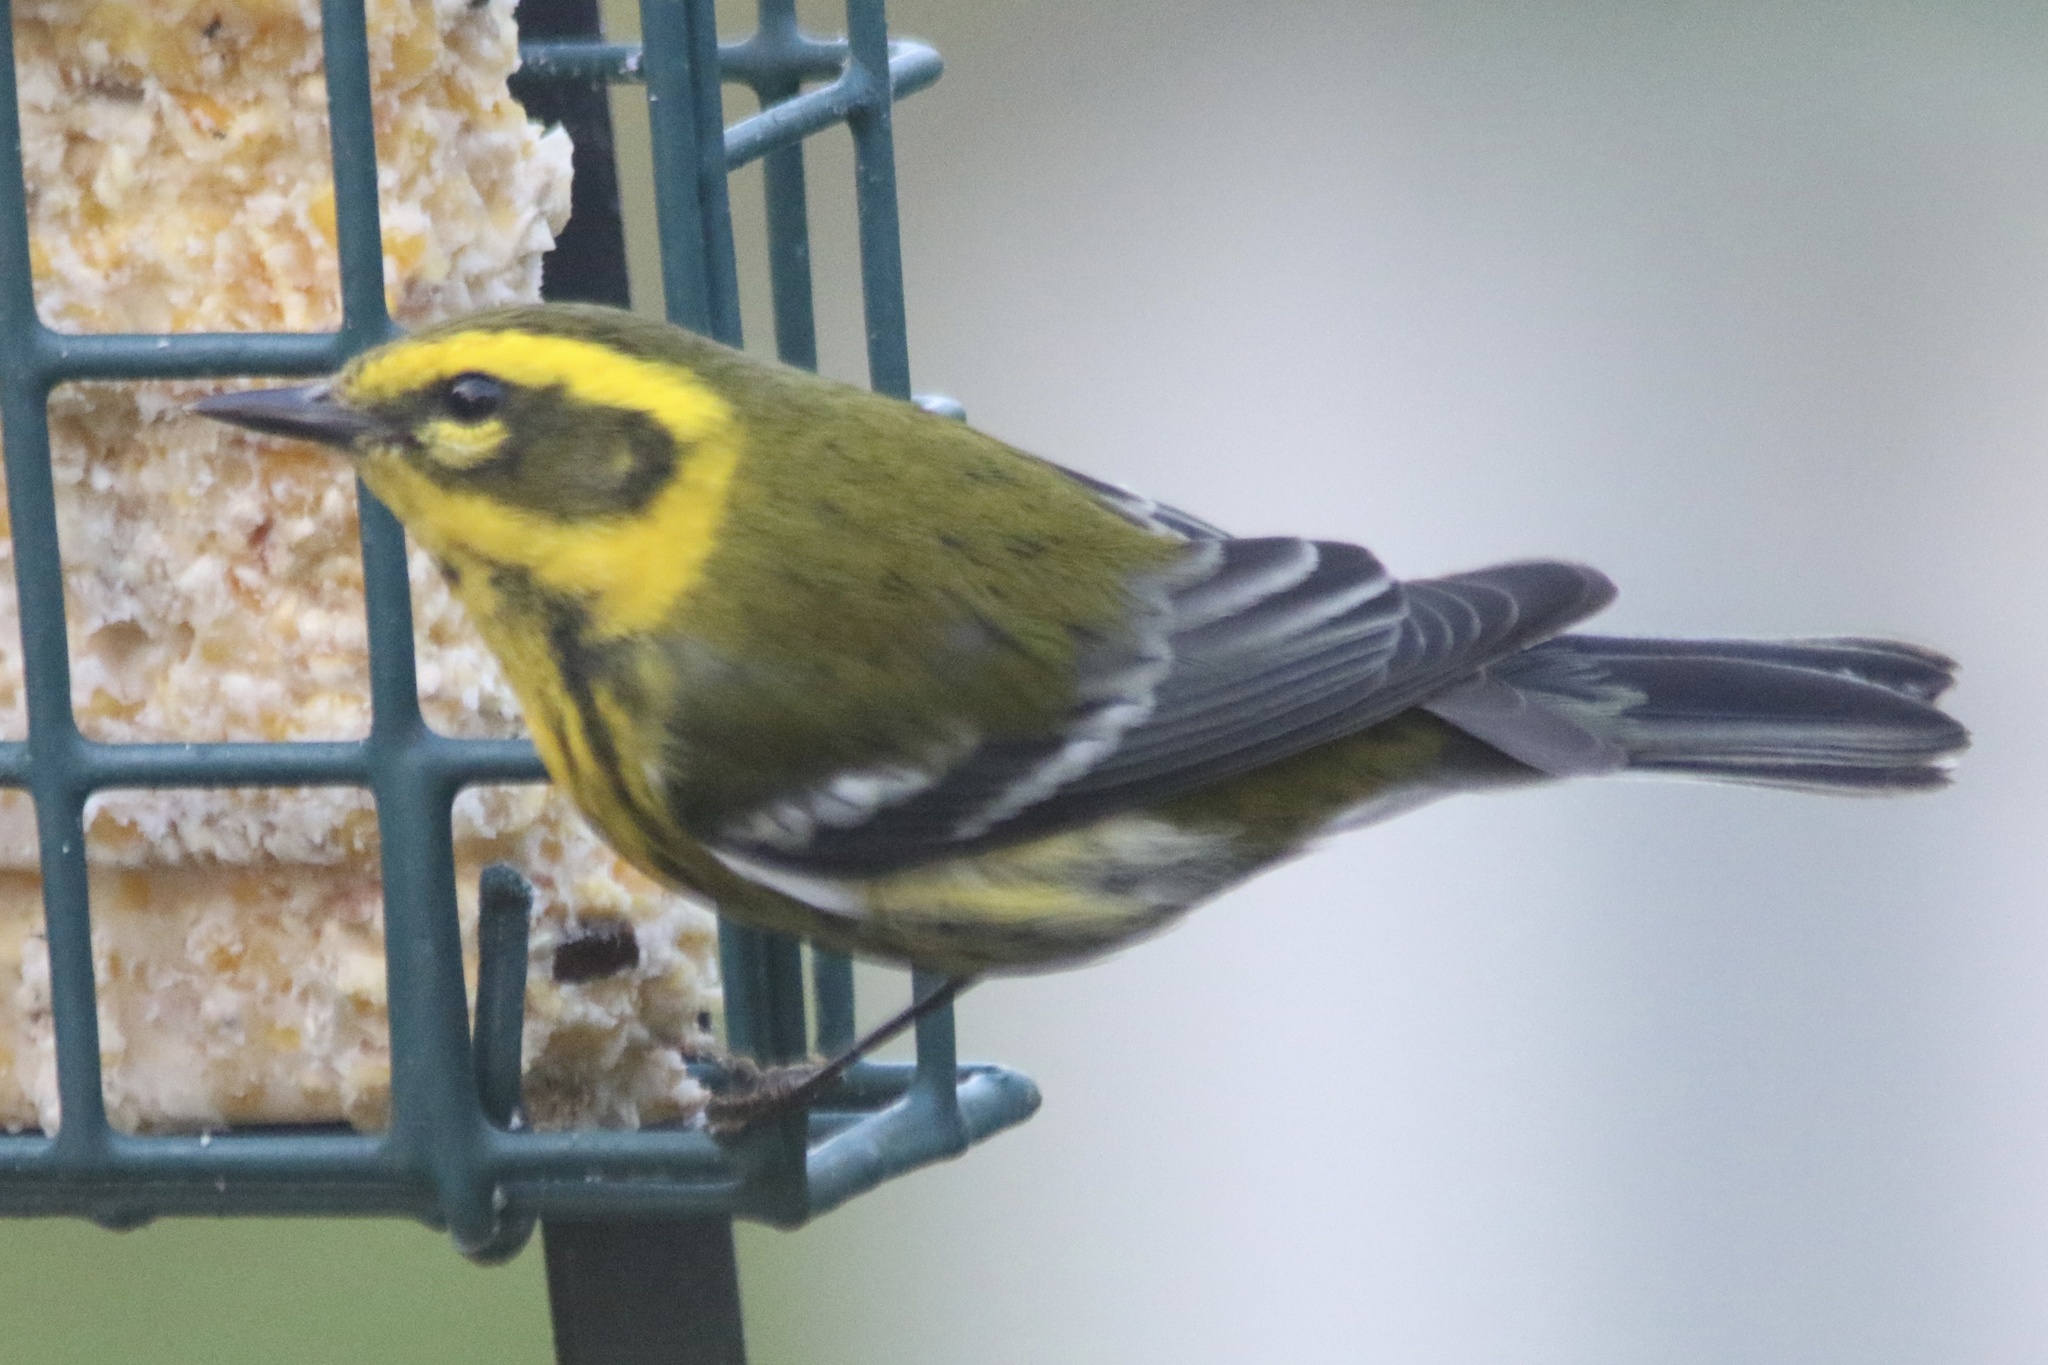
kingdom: Animalia
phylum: Chordata
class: Aves
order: Passeriformes
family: Parulidae
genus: Setophaga
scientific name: Setophaga townsendi
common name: Townsend's warbler
